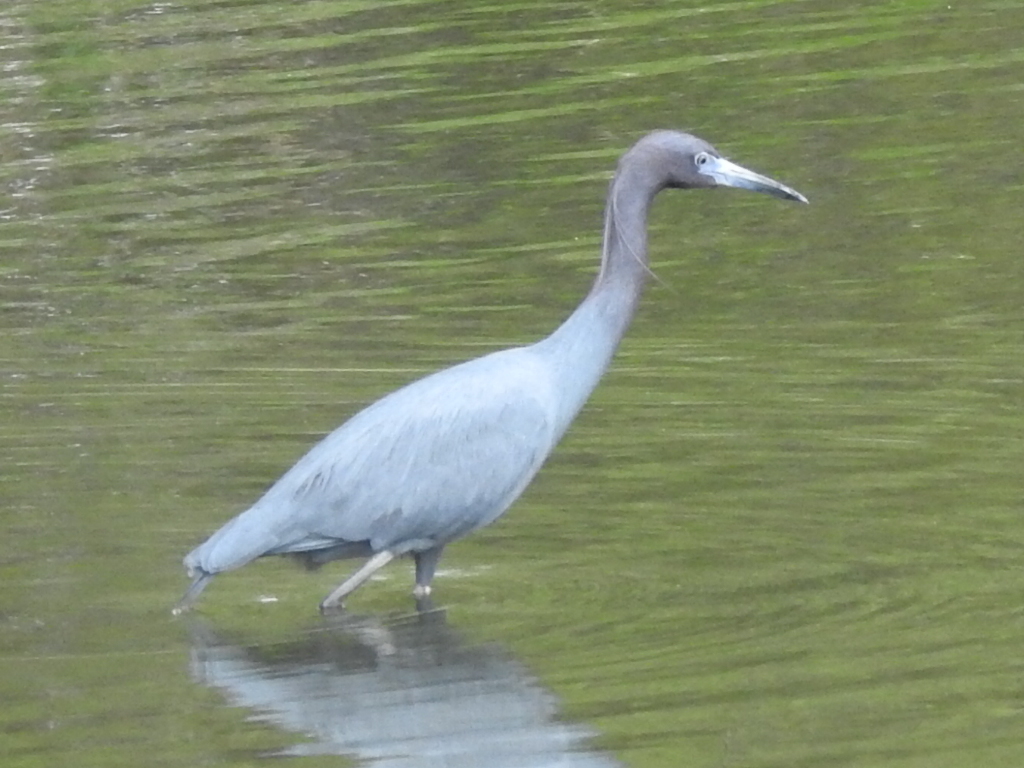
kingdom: Animalia
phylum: Chordata
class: Aves
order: Pelecaniformes
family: Ardeidae
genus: Egretta
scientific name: Egretta caerulea
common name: Little blue heron
